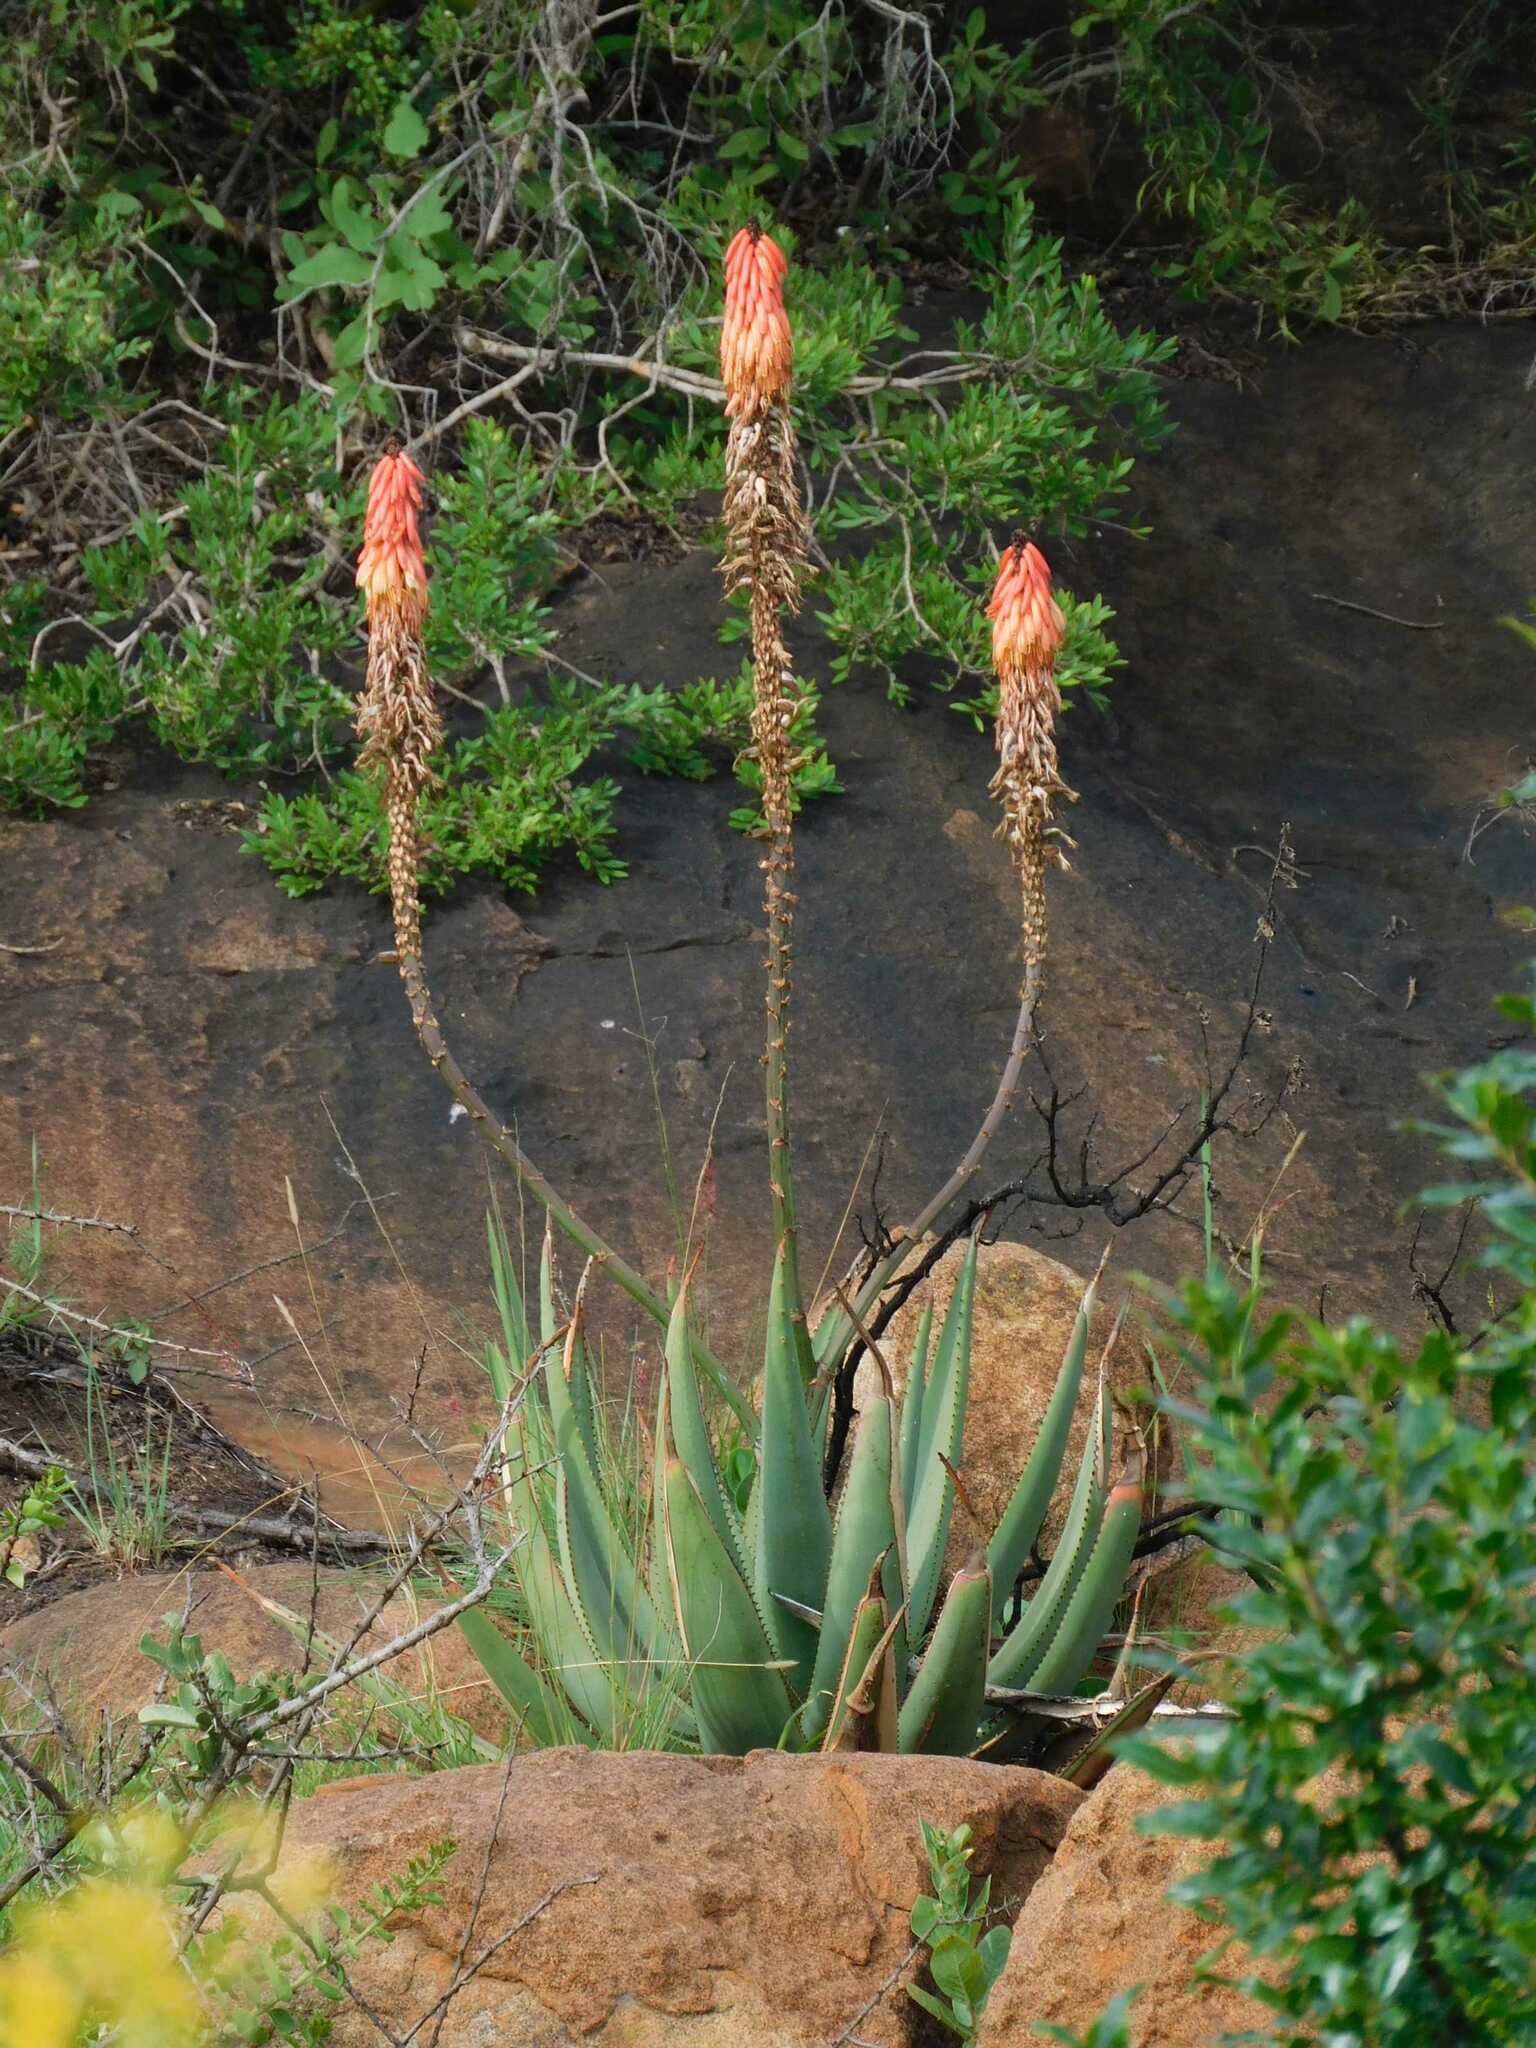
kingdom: Plantae
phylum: Tracheophyta
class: Liliopsida
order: Asparagales
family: Asphodelaceae
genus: Aloe
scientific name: Aloe reitzii
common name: Reitz's aloe
